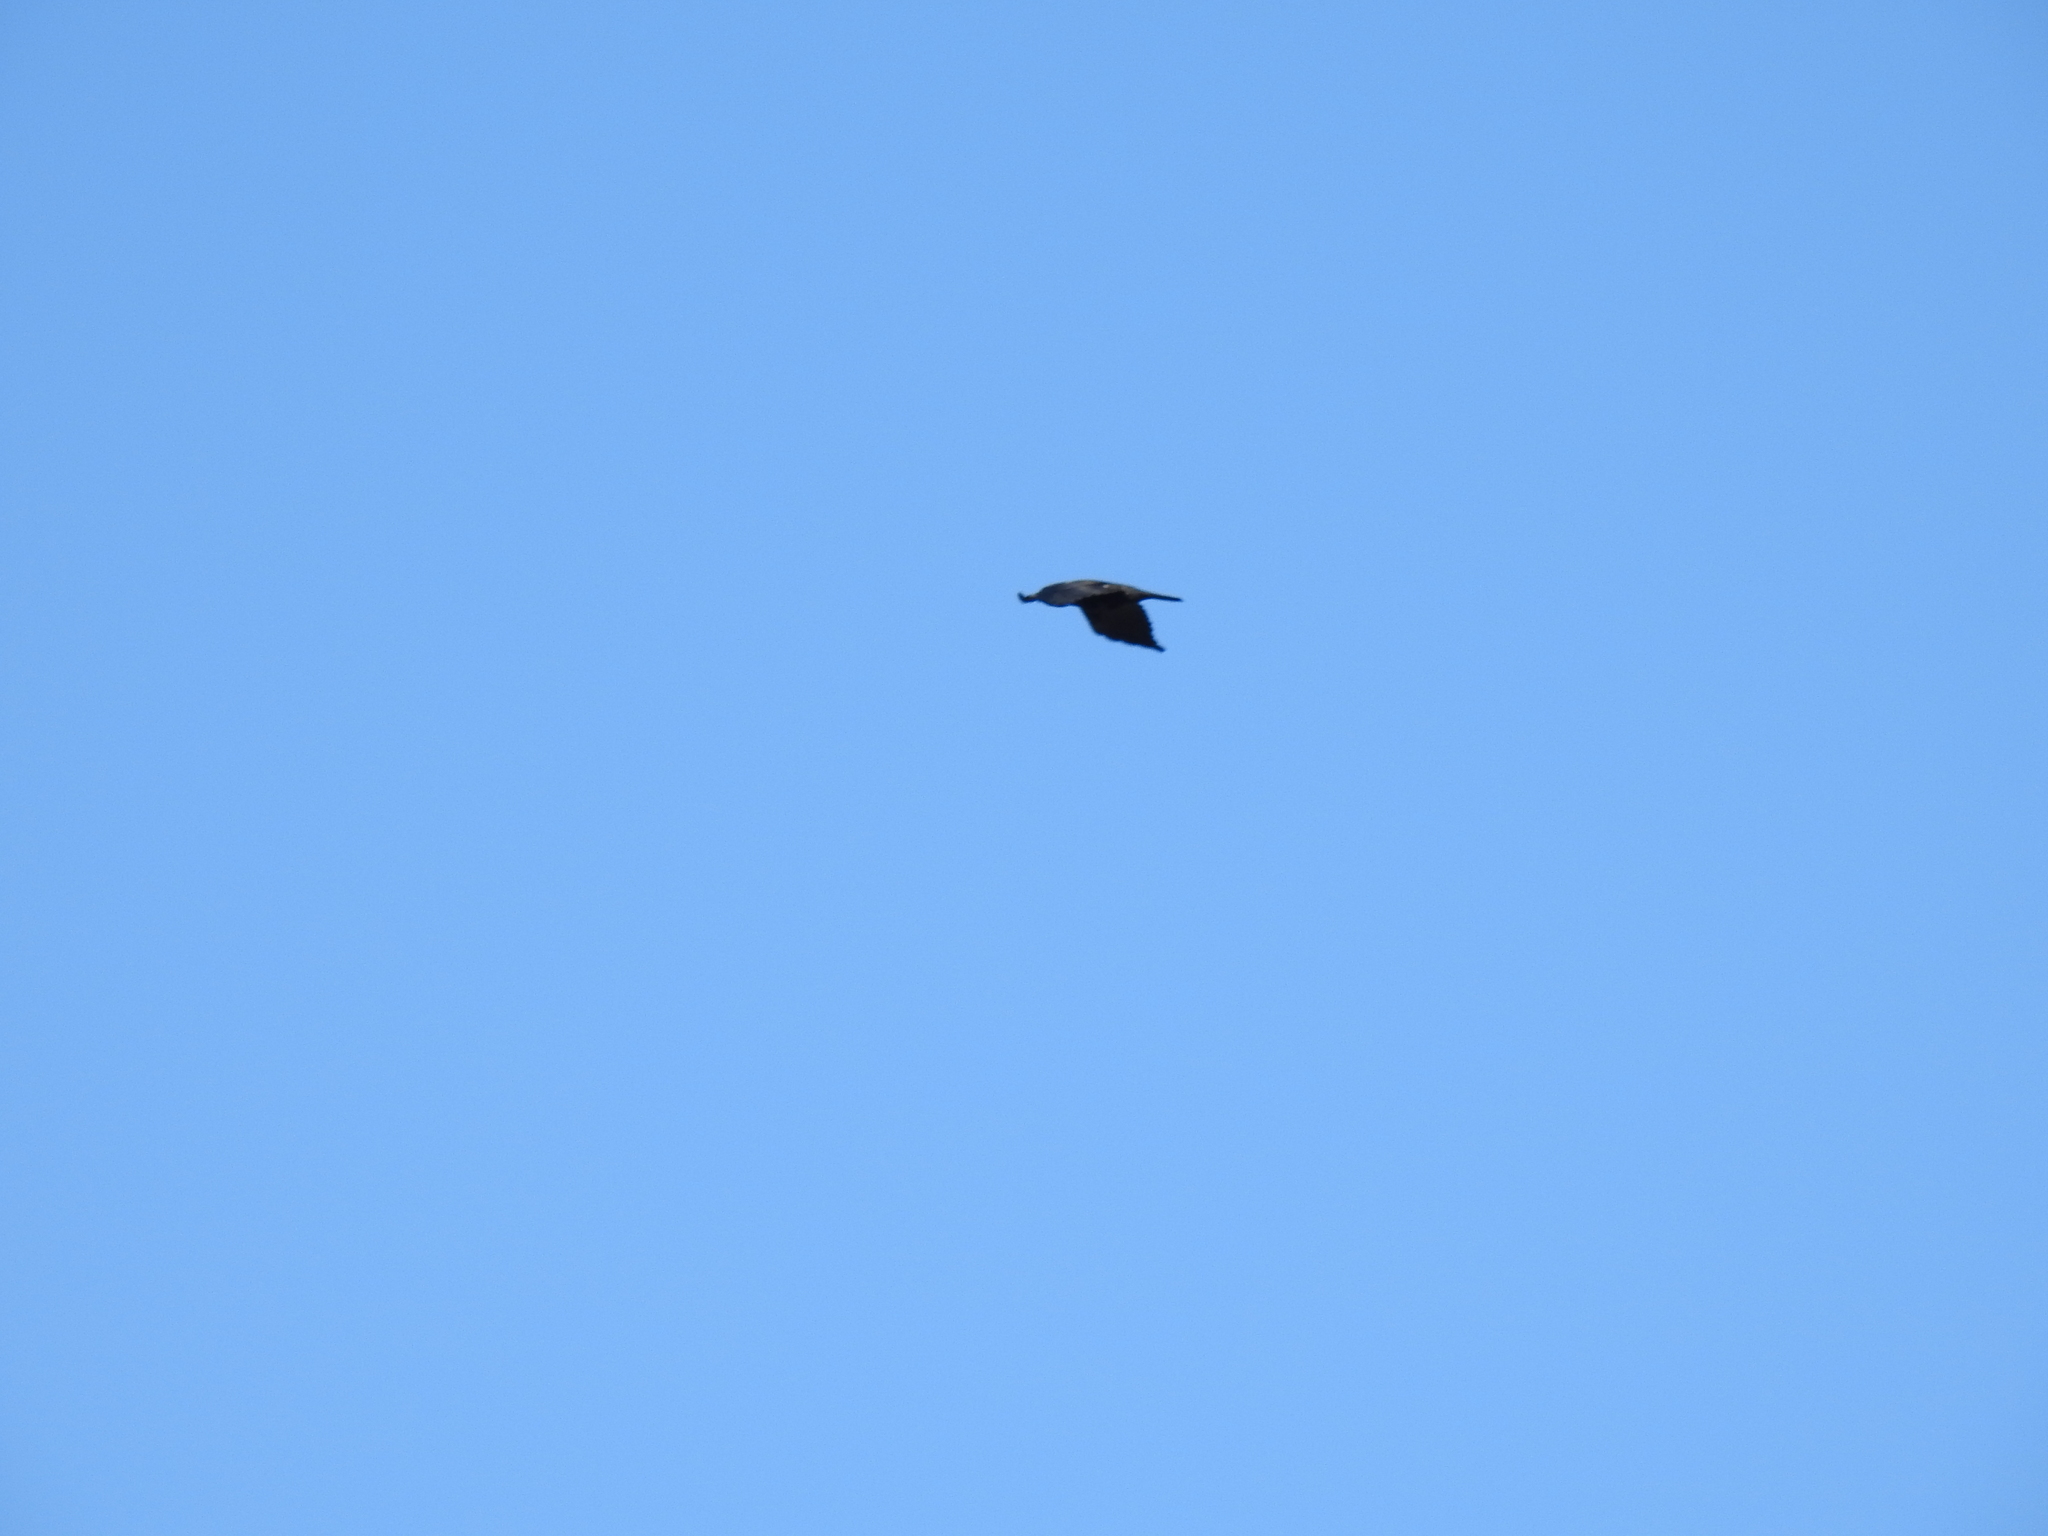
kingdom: Animalia
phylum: Chordata
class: Aves
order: Passeriformes
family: Corvidae
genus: Corvus
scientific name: Corvus brachyrhynchos
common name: American crow
